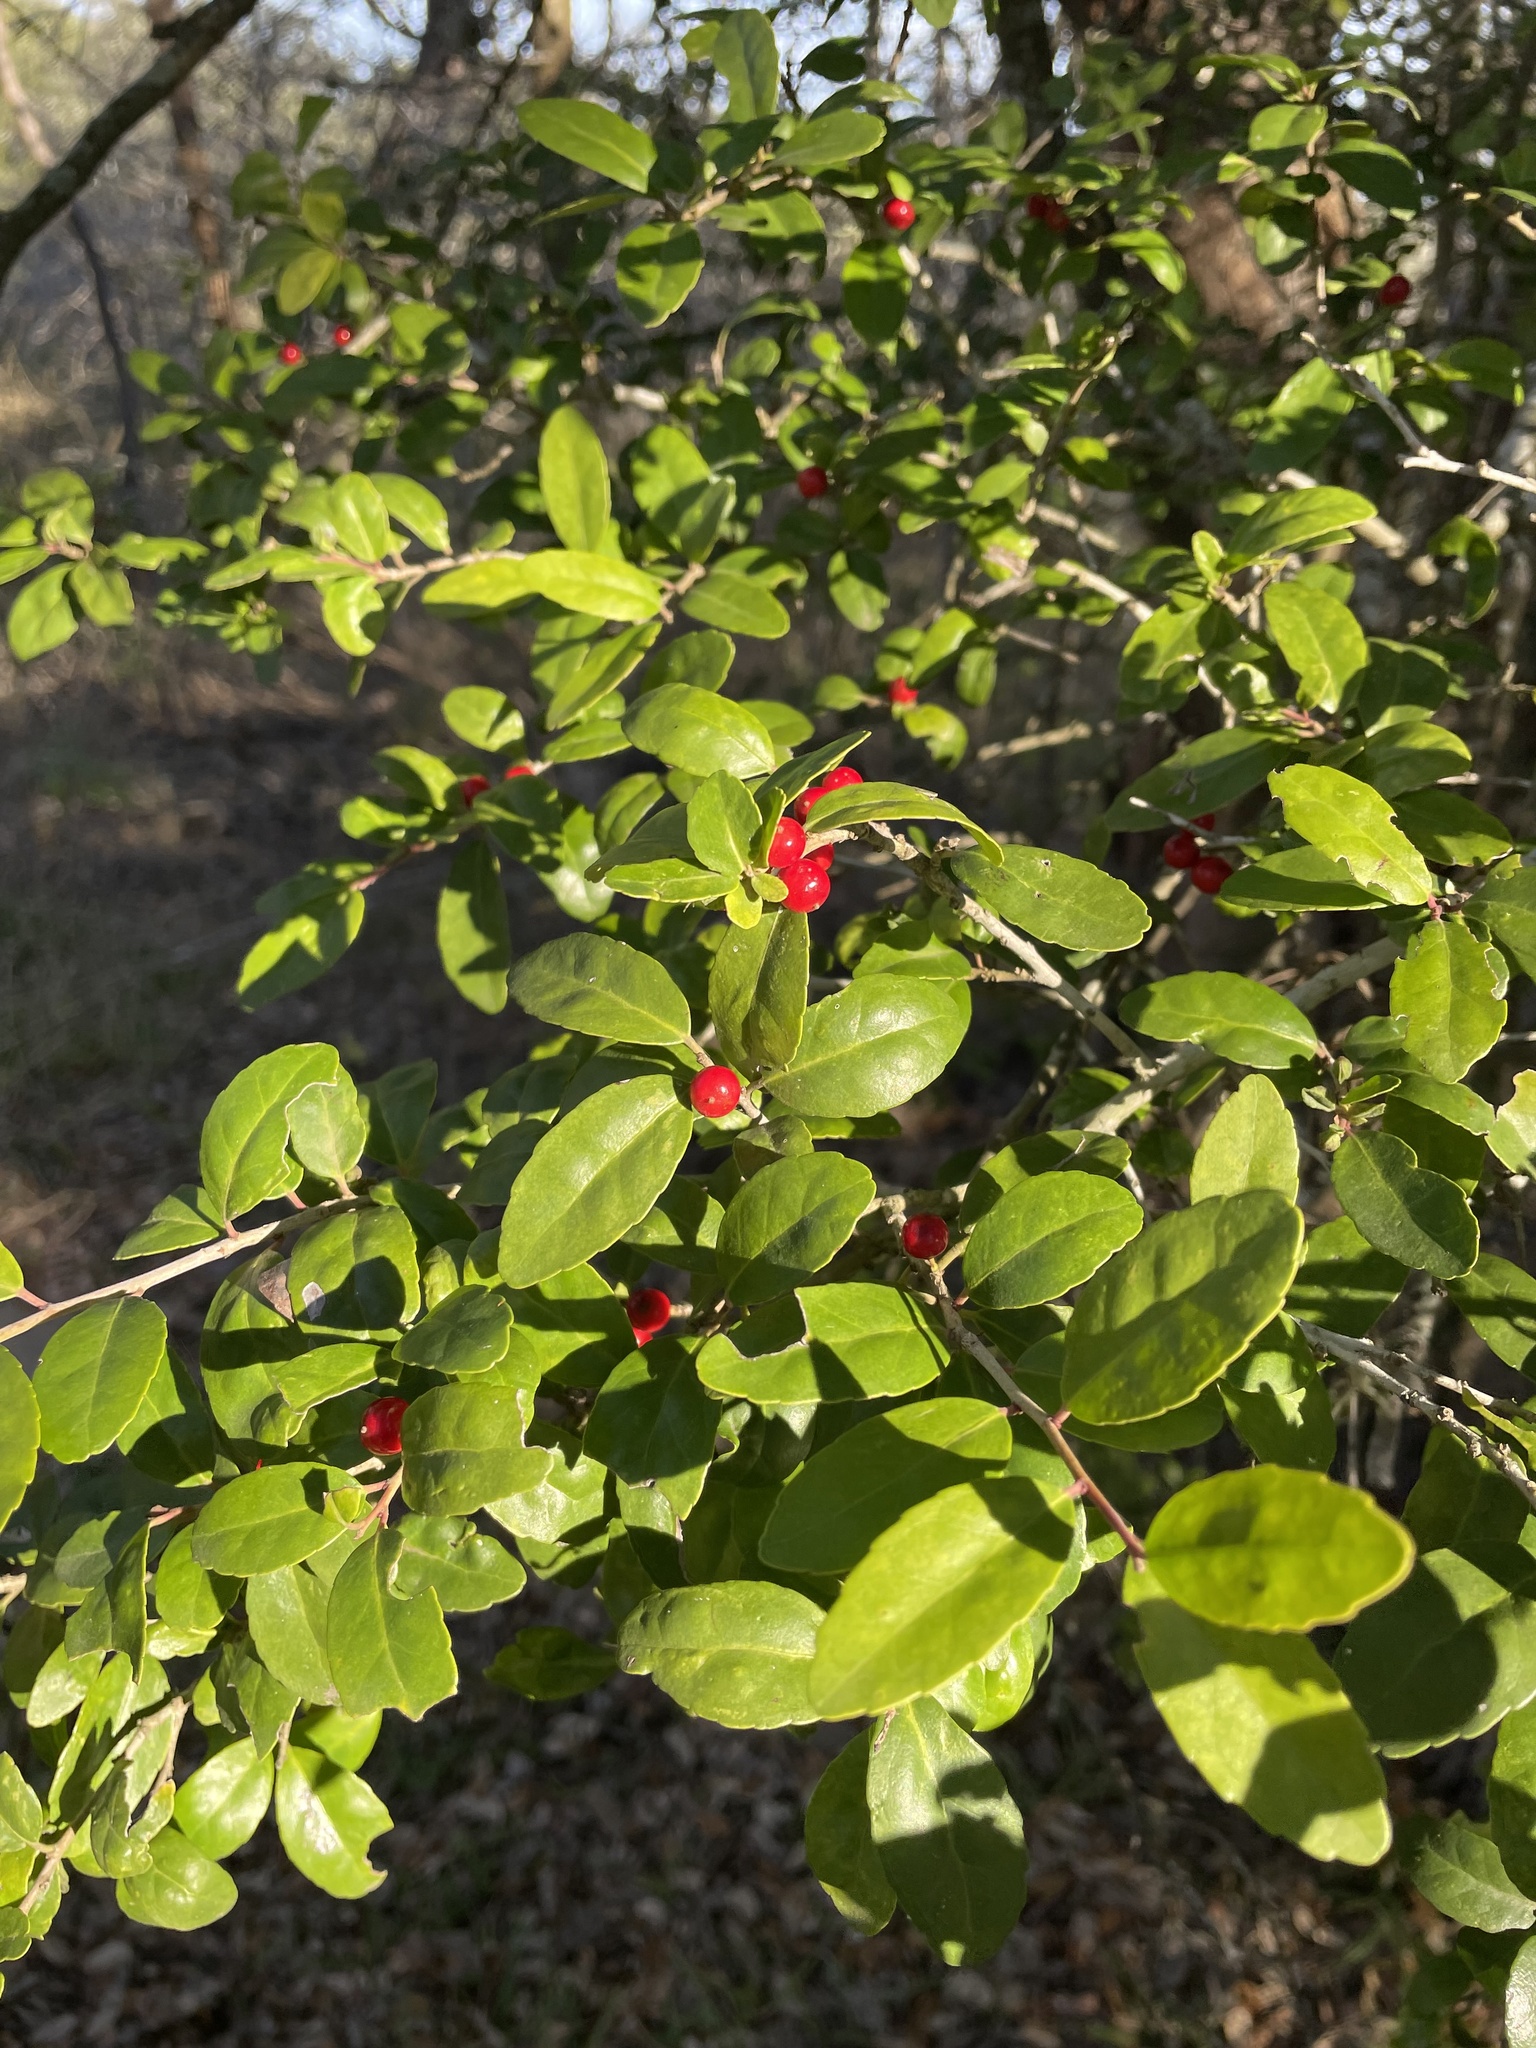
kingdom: Plantae
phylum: Tracheophyta
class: Magnoliopsida
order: Aquifoliales
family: Aquifoliaceae
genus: Ilex
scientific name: Ilex vomitoria
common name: Yaupon holly
